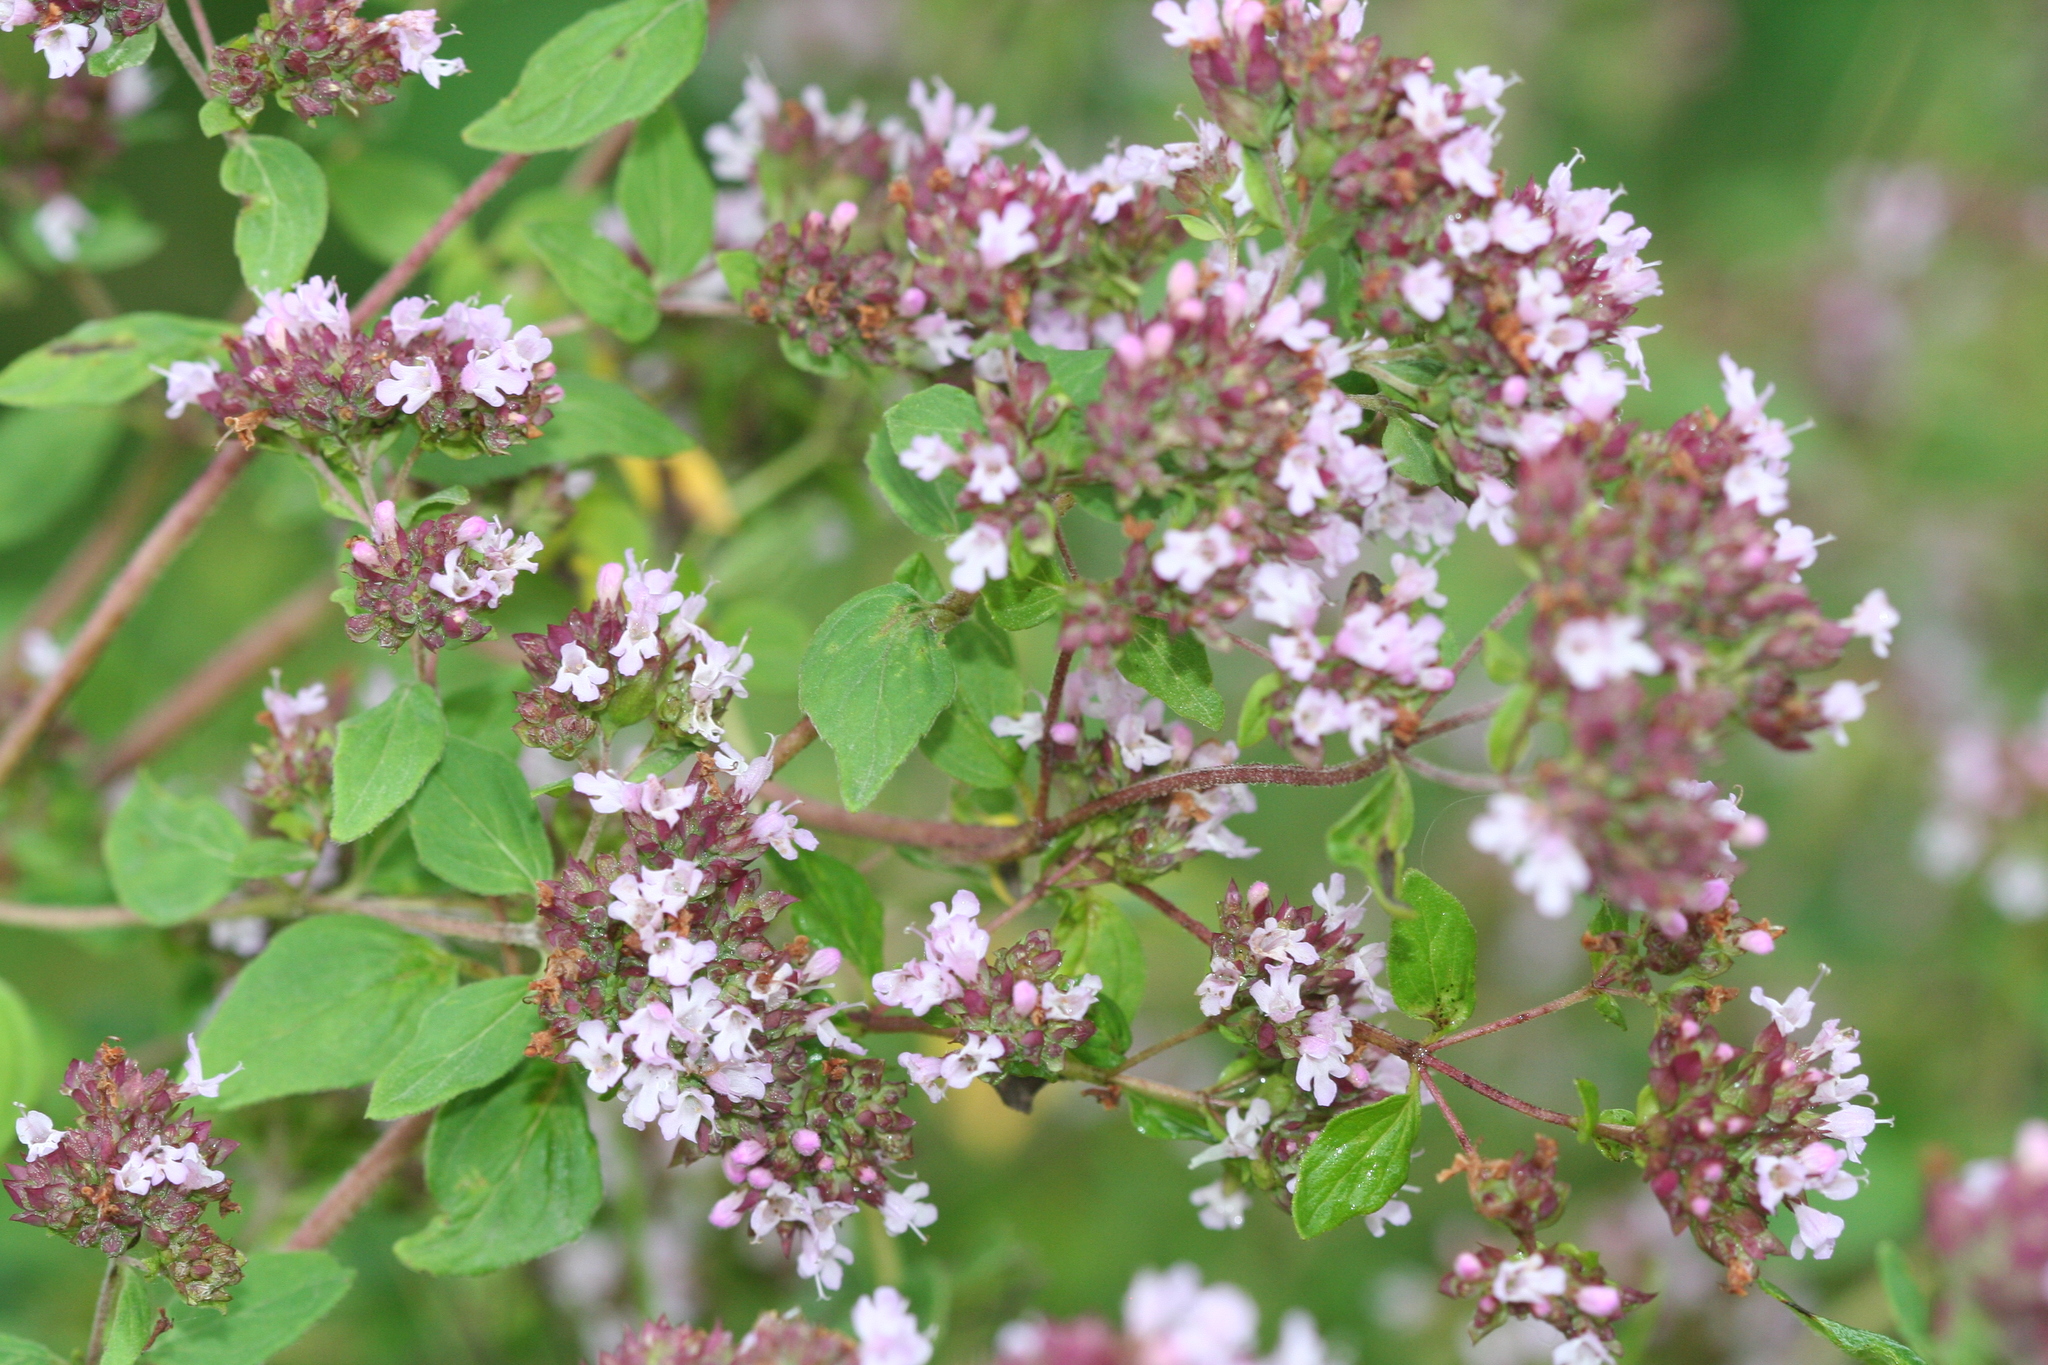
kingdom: Plantae
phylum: Tracheophyta
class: Magnoliopsida
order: Lamiales
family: Lamiaceae
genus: Origanum
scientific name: Origanum vulgare
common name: Wild marjoram
